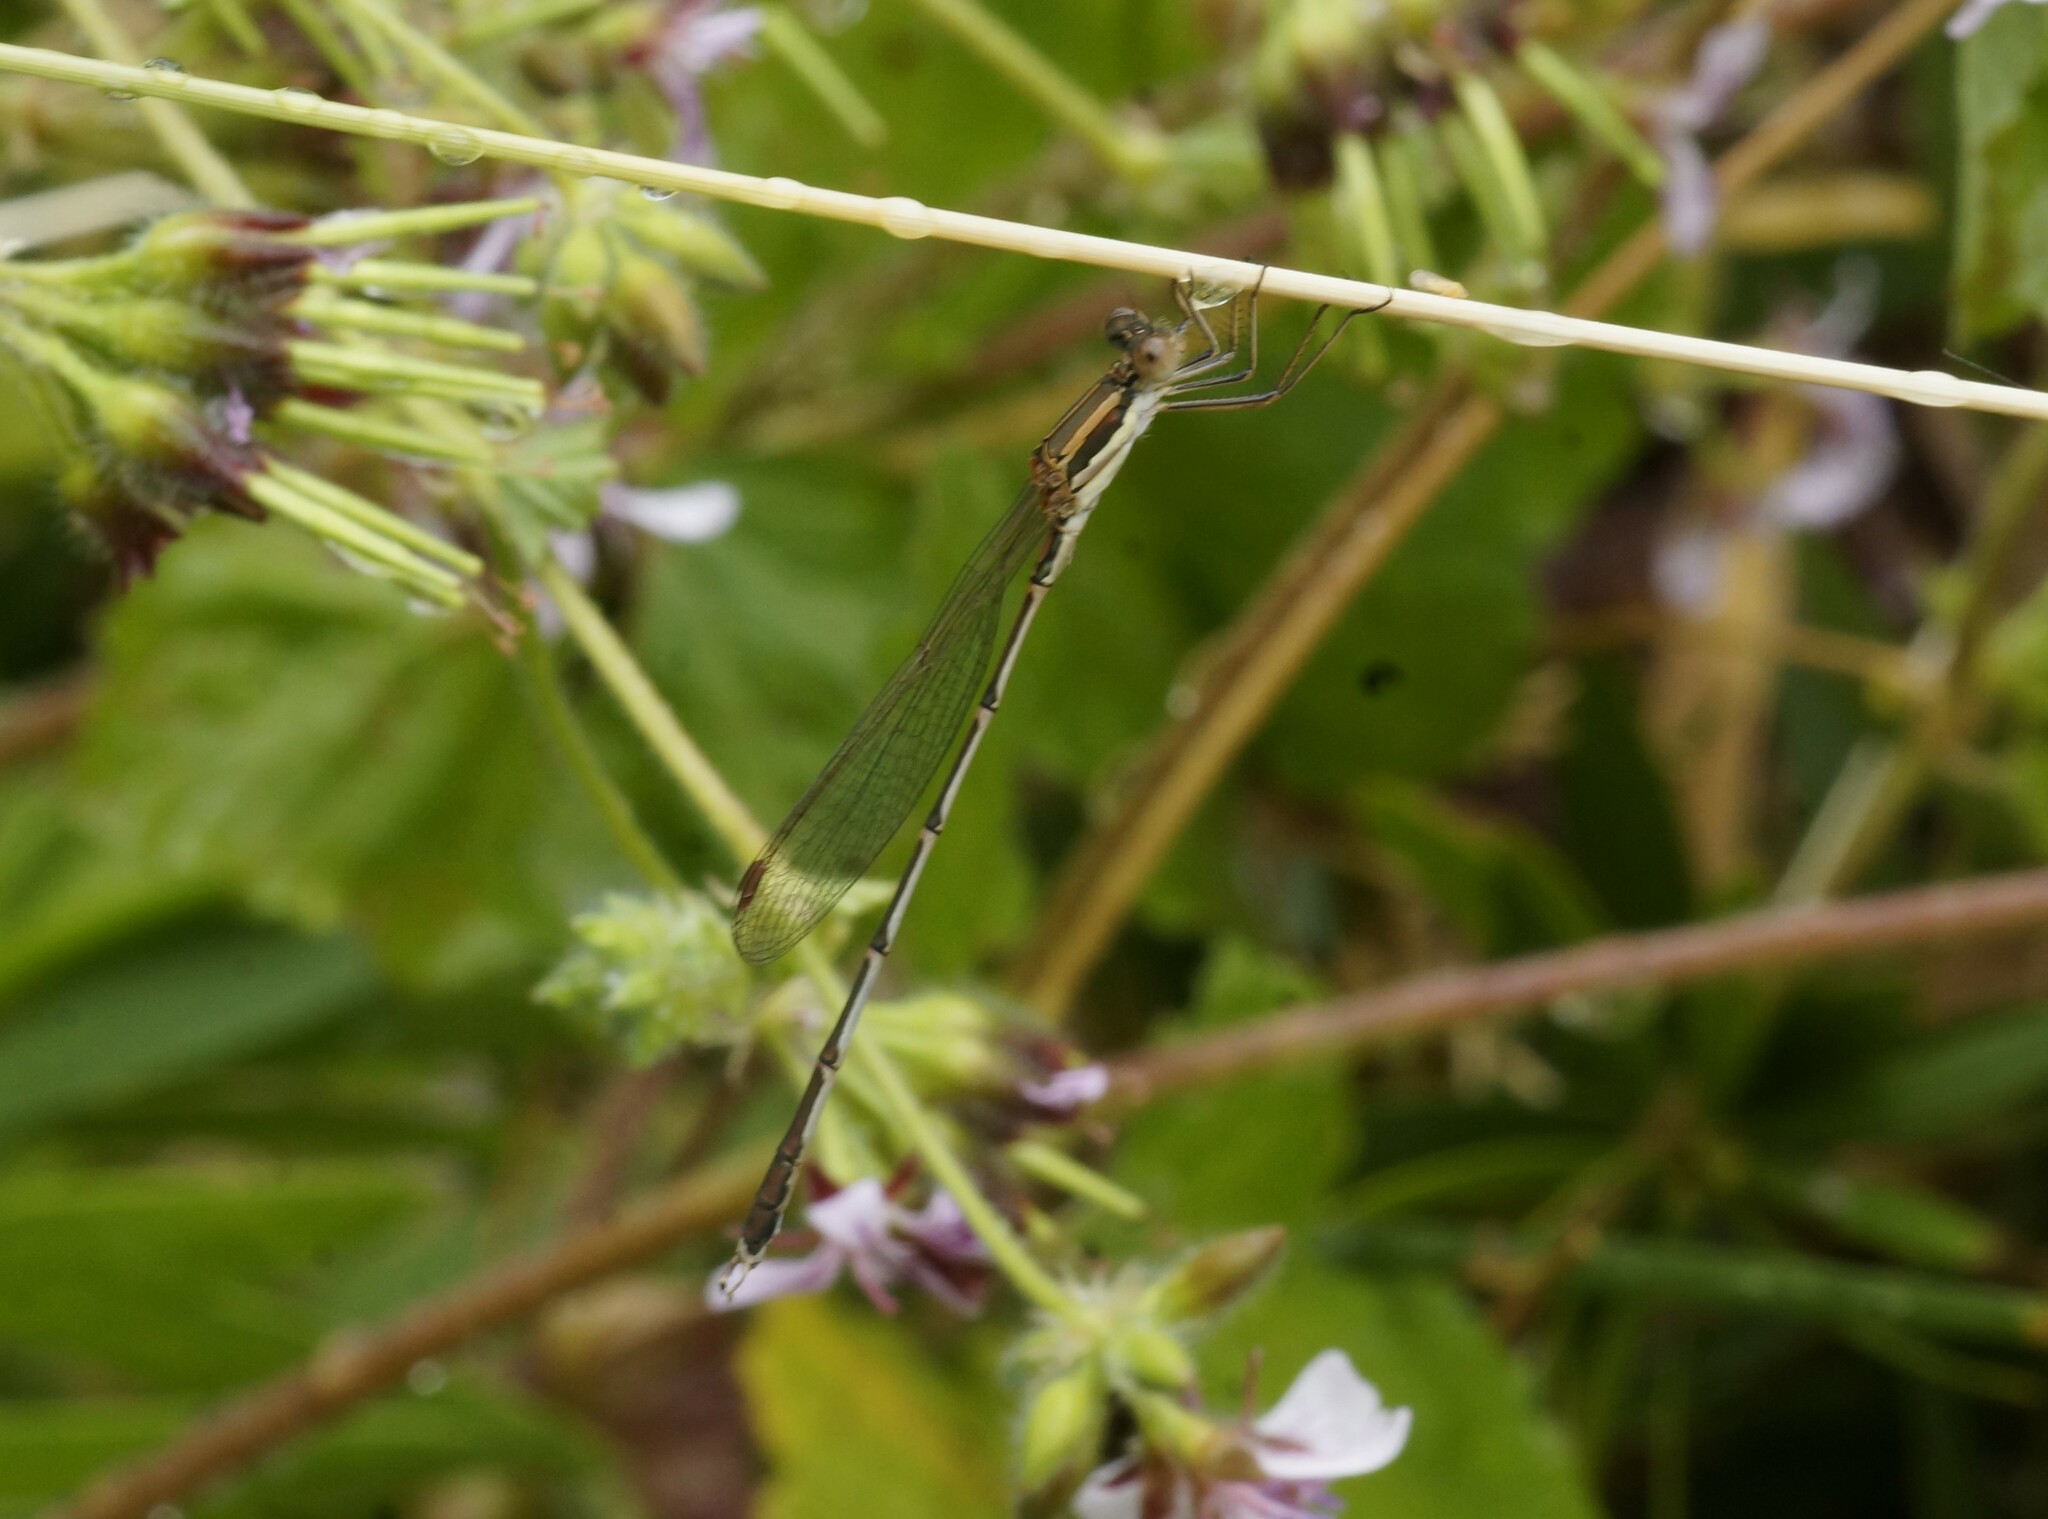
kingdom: Animalia
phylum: Arthropoda
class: Insecta
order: Odonata
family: Lestidae
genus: Austrolestes
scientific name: Austrolestes analis
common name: Slender ringtail
